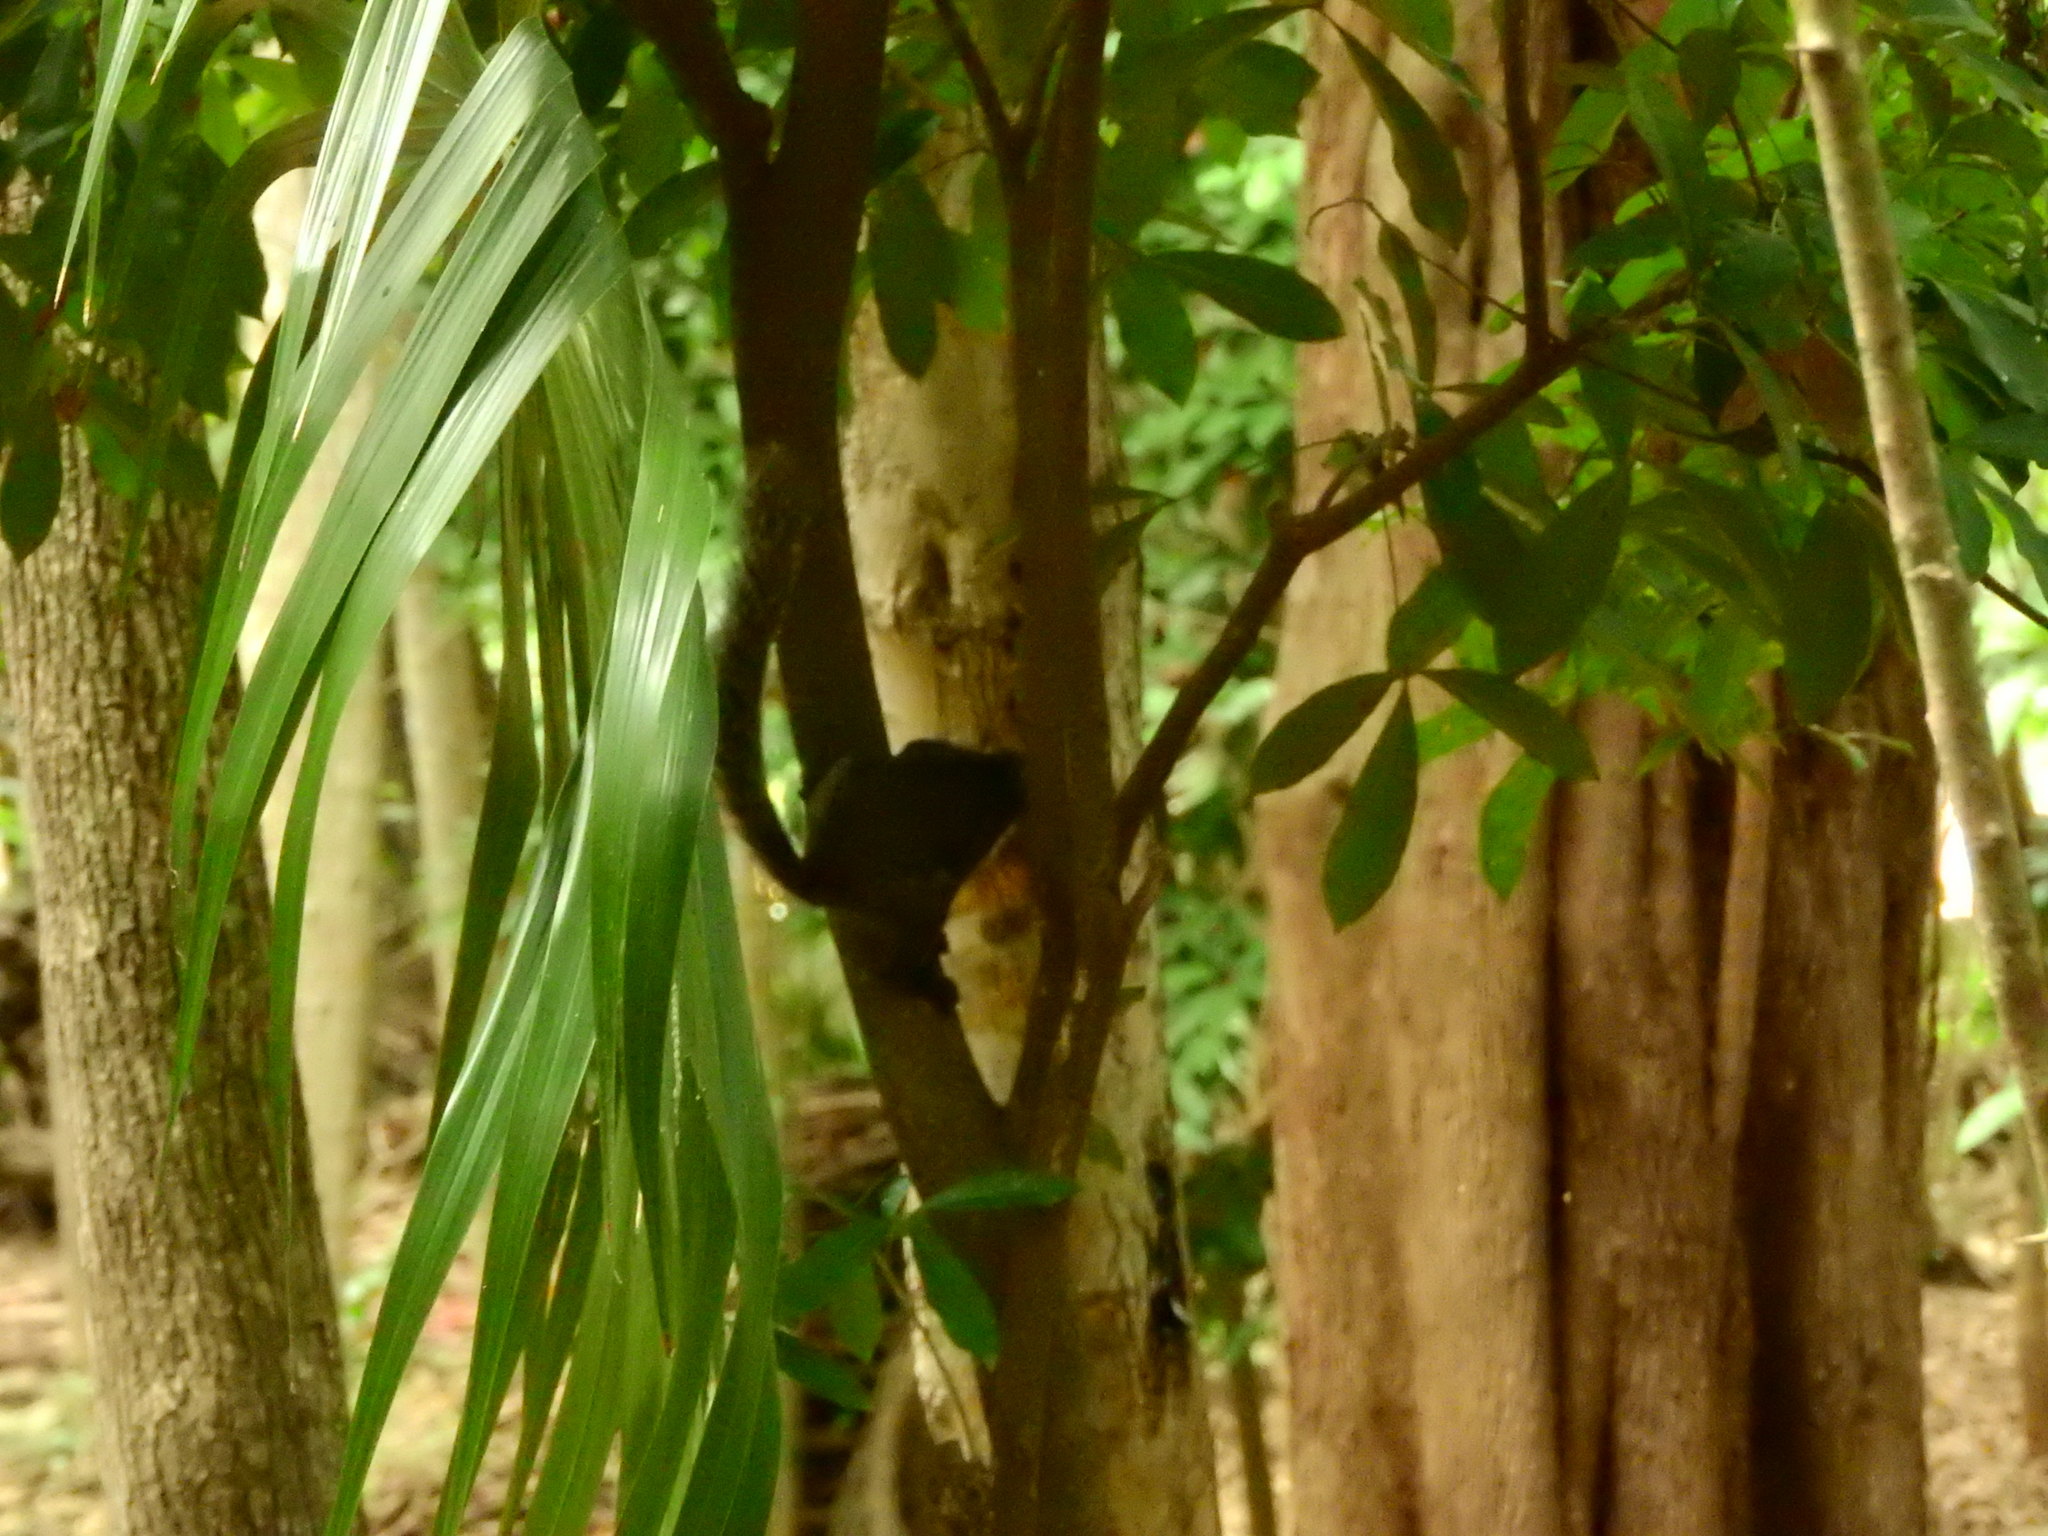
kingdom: Animalia
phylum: Chordata
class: Mammalia
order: Rodentia
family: Sciuridae
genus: Sciurus
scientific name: Sciurus yucatanensis
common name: Yucatan squirrel
